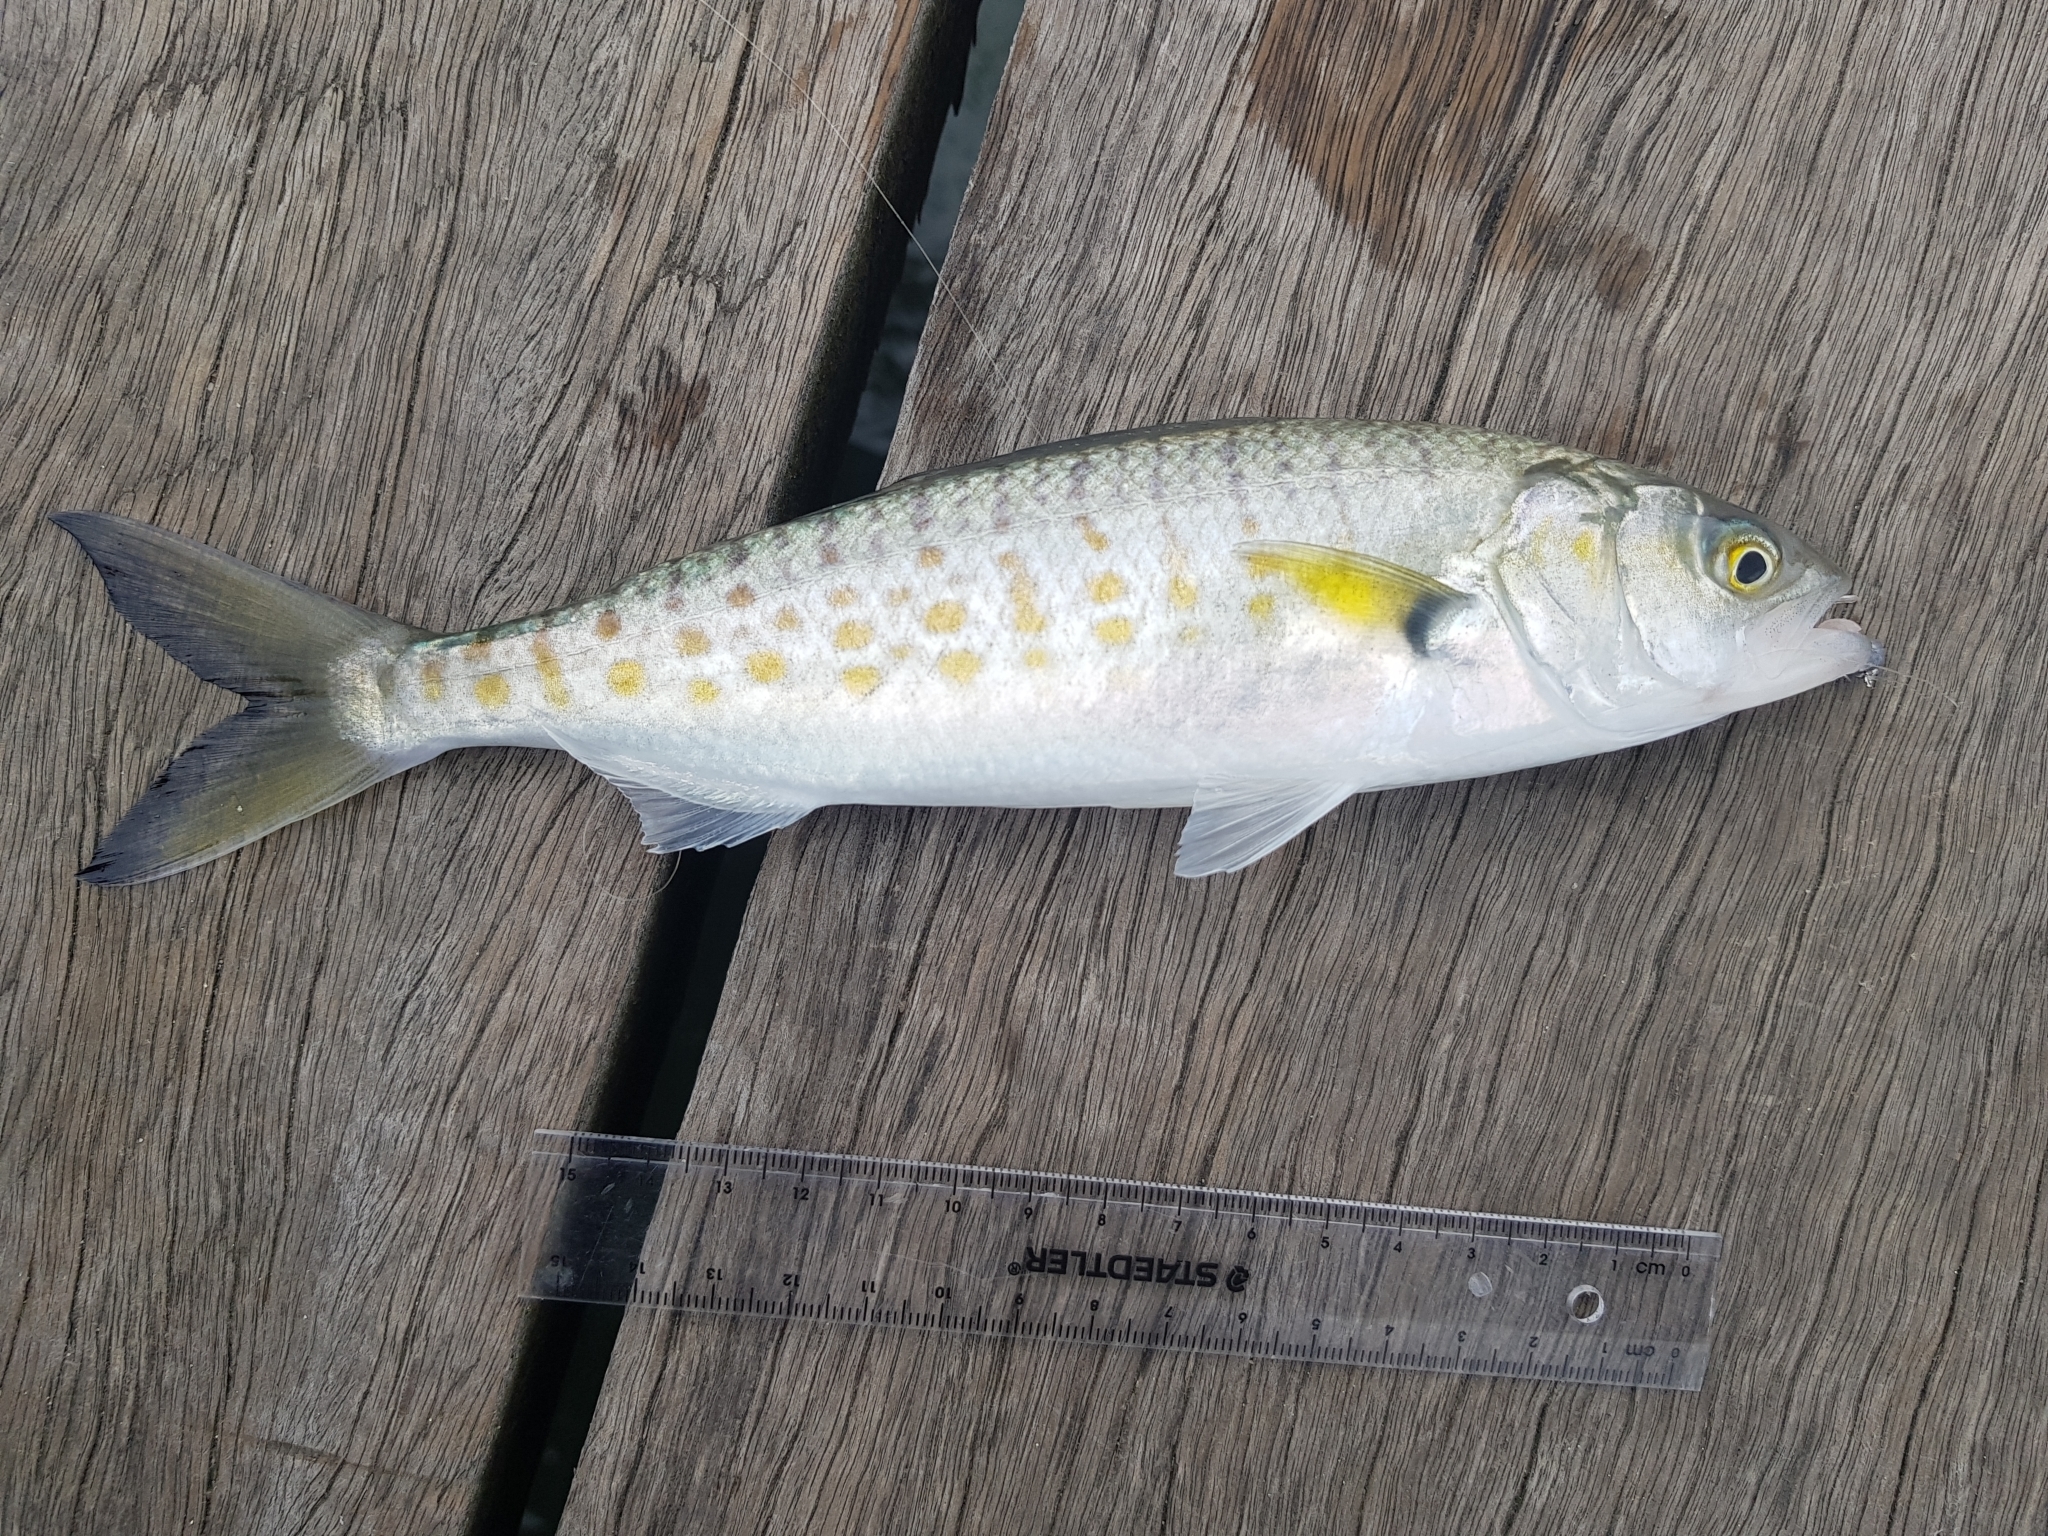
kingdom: Animalia
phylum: Chordata
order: Perciformes
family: Arripidae
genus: Arripis
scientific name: Arripis trutta
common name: Kahawai
